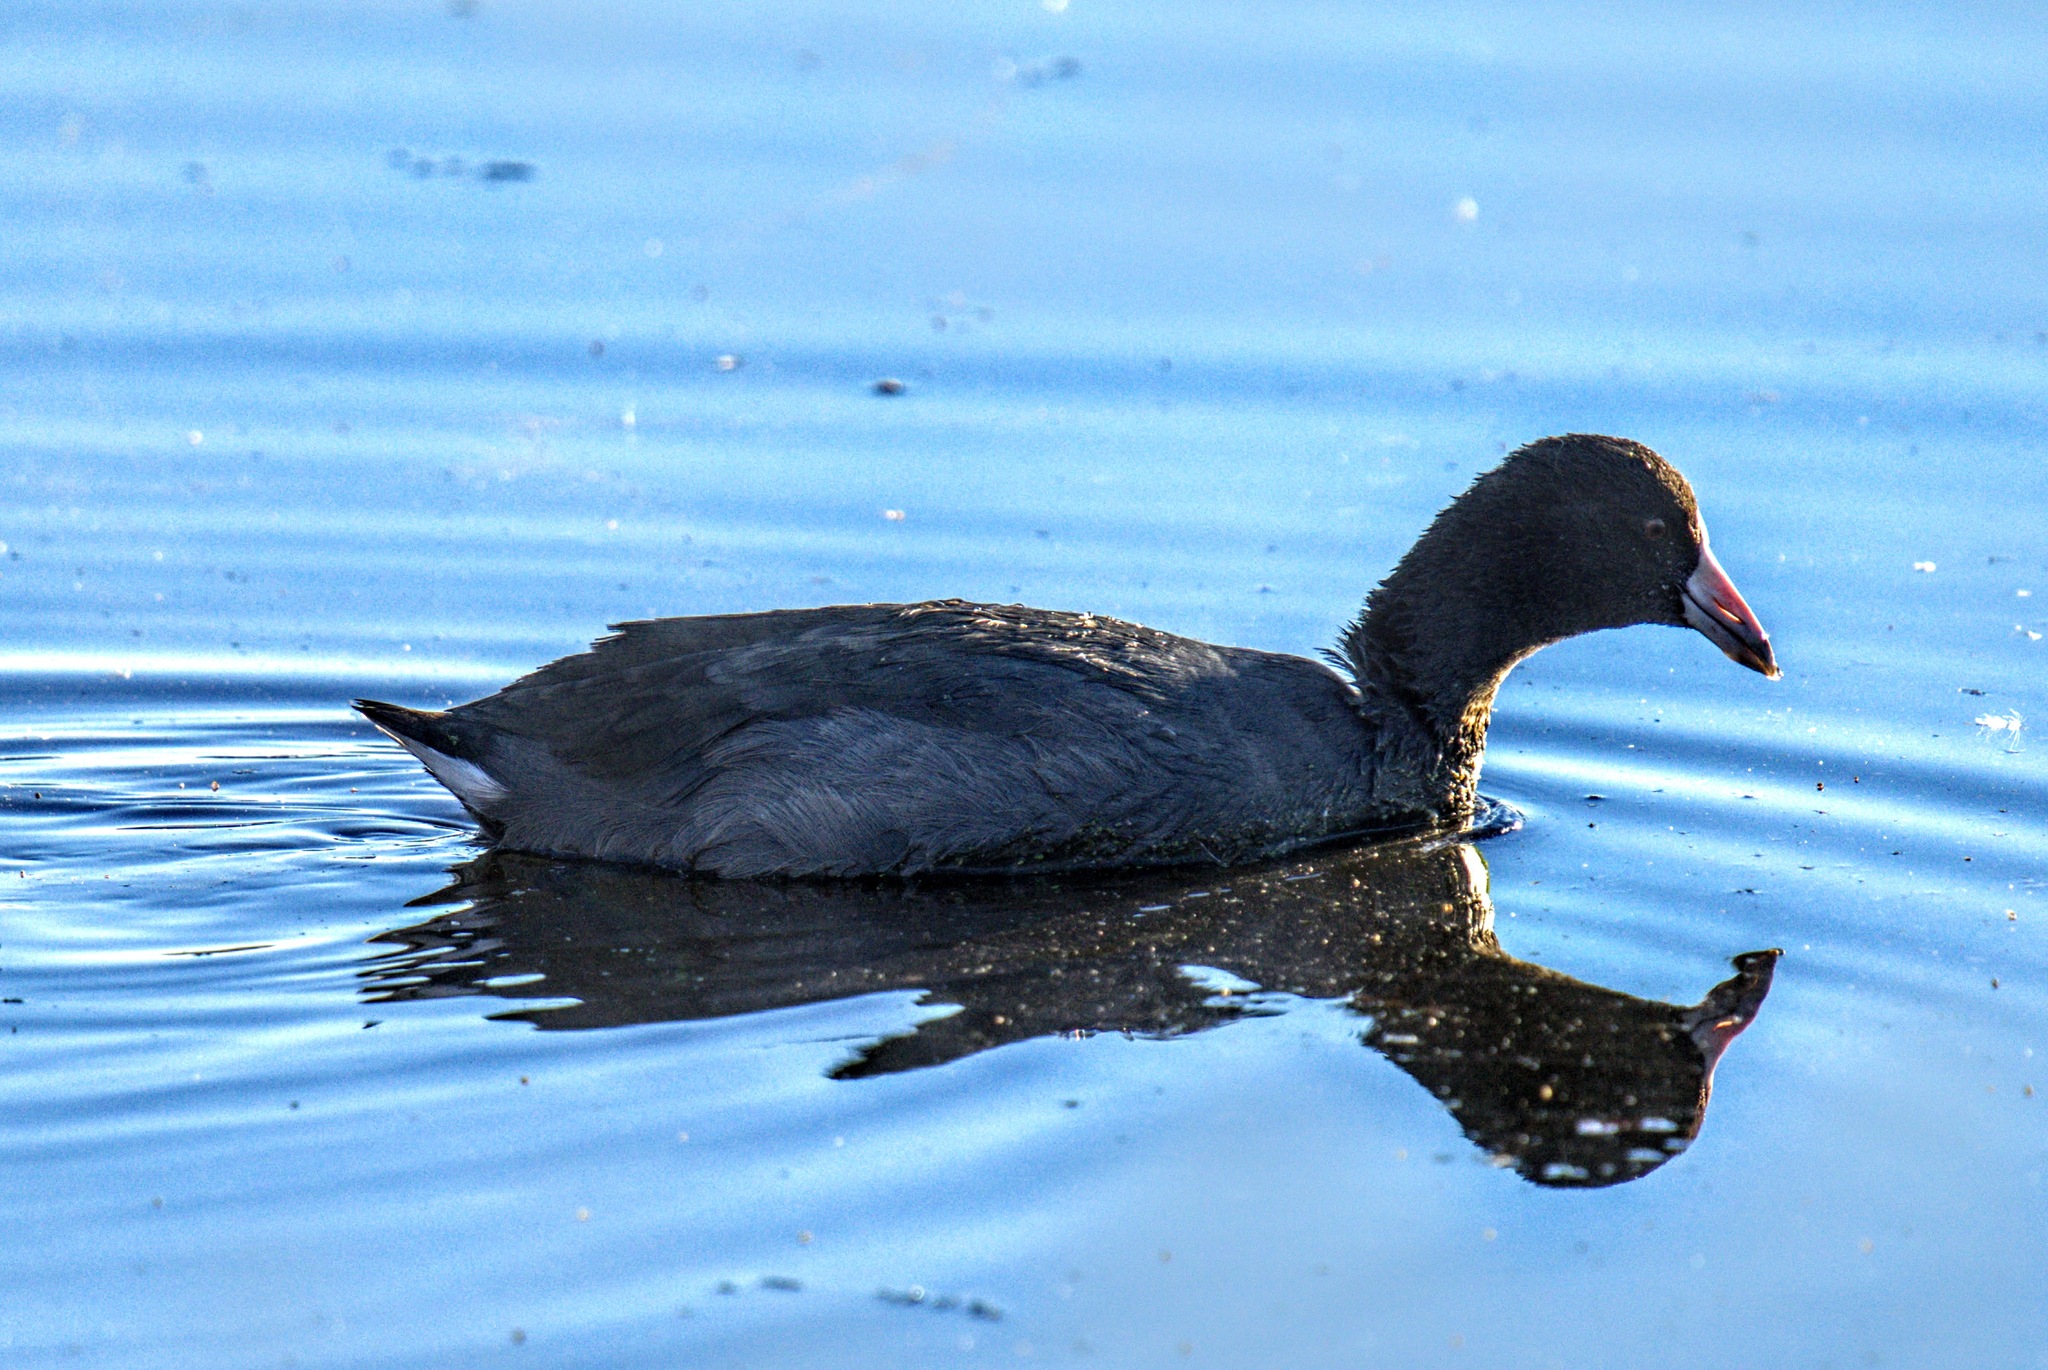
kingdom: Animalia
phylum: Chordata
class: Aves
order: Gruiformes
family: Rallidae
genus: Fulica
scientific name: Fulica americana
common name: American coot
